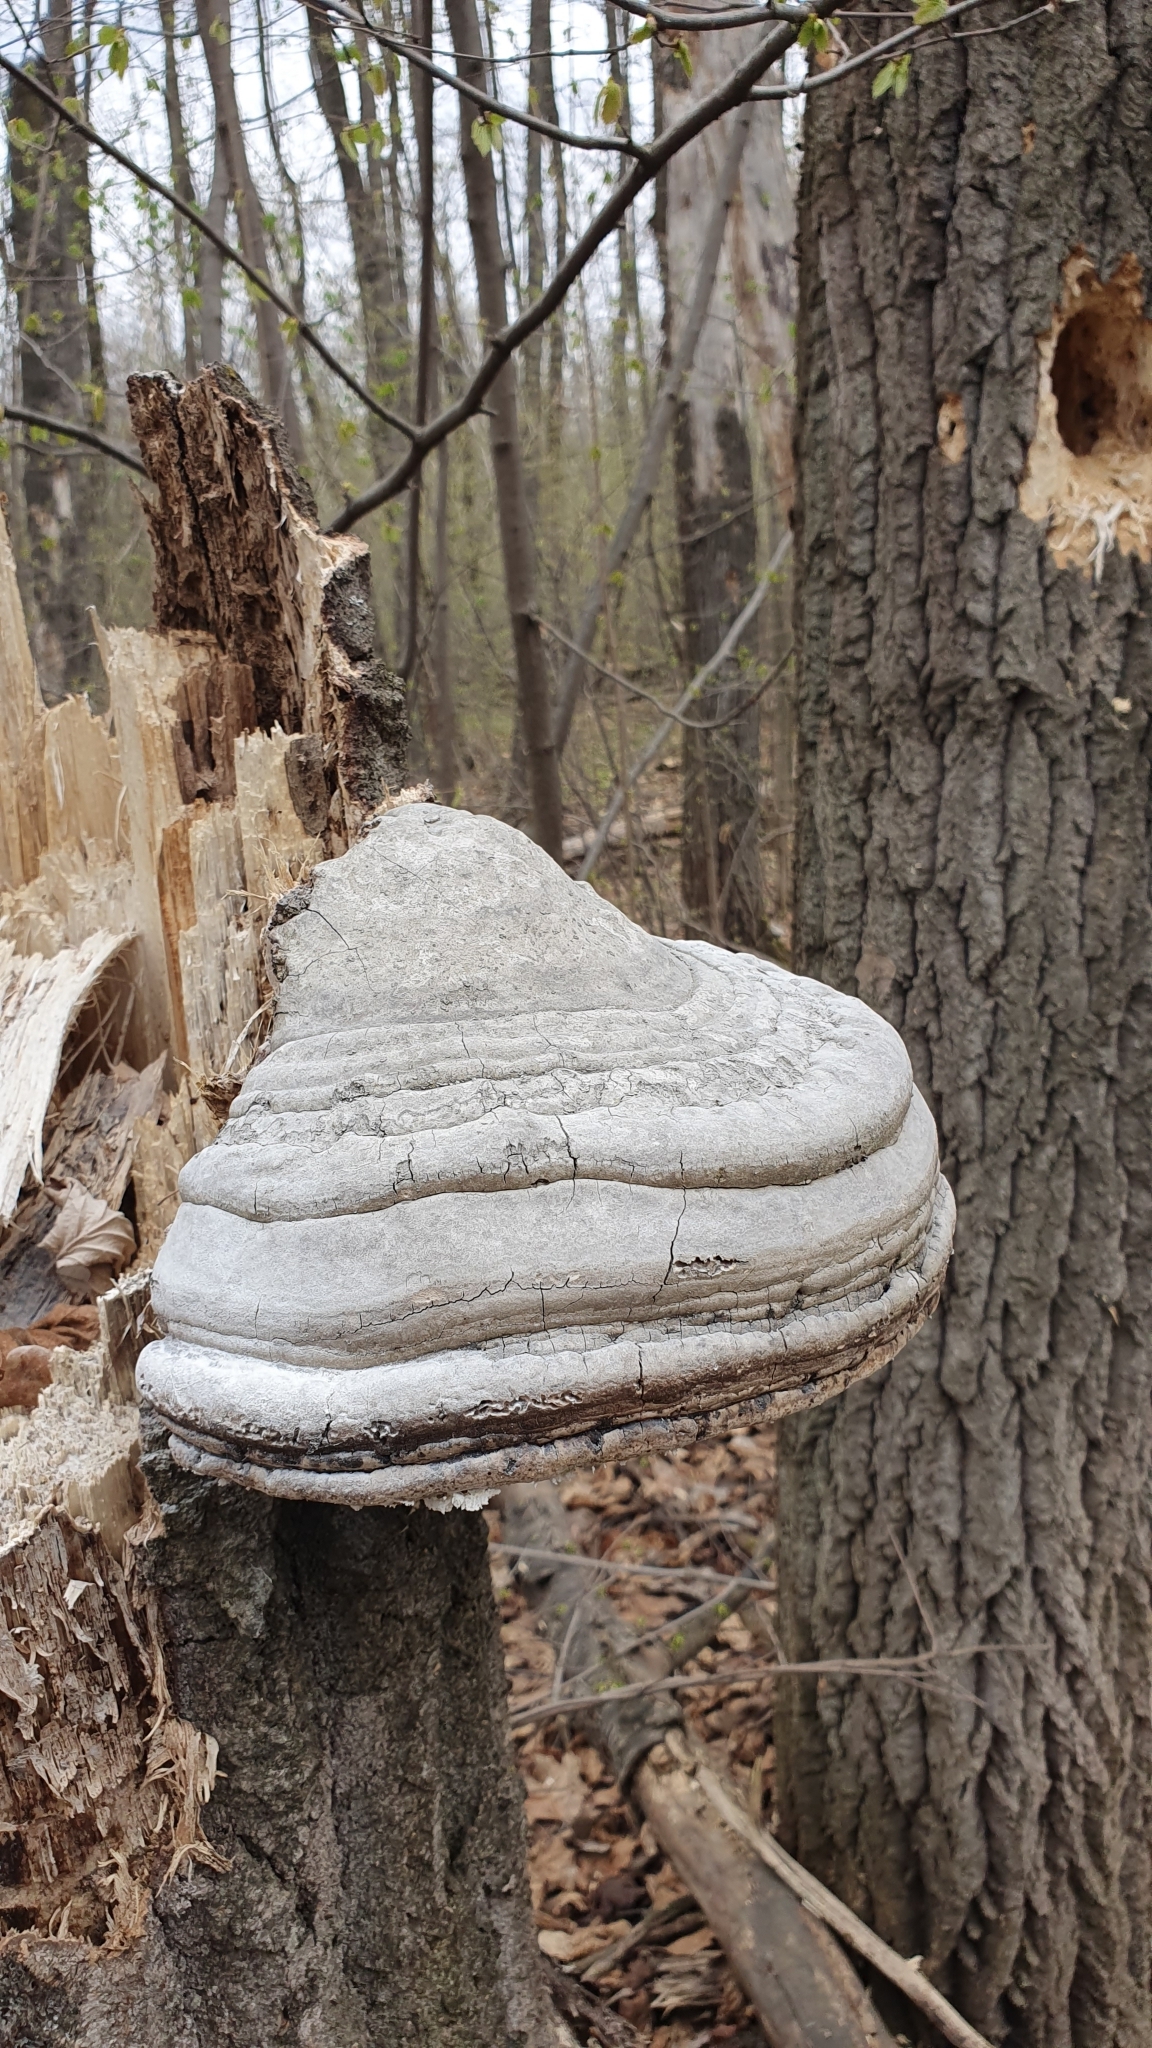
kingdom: Fungi
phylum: Basidiomycota
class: Agaricomycetes
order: Polyporales
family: Polyporaceae
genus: Fomes
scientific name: Fomes fomentarius
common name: Hoof fungus
